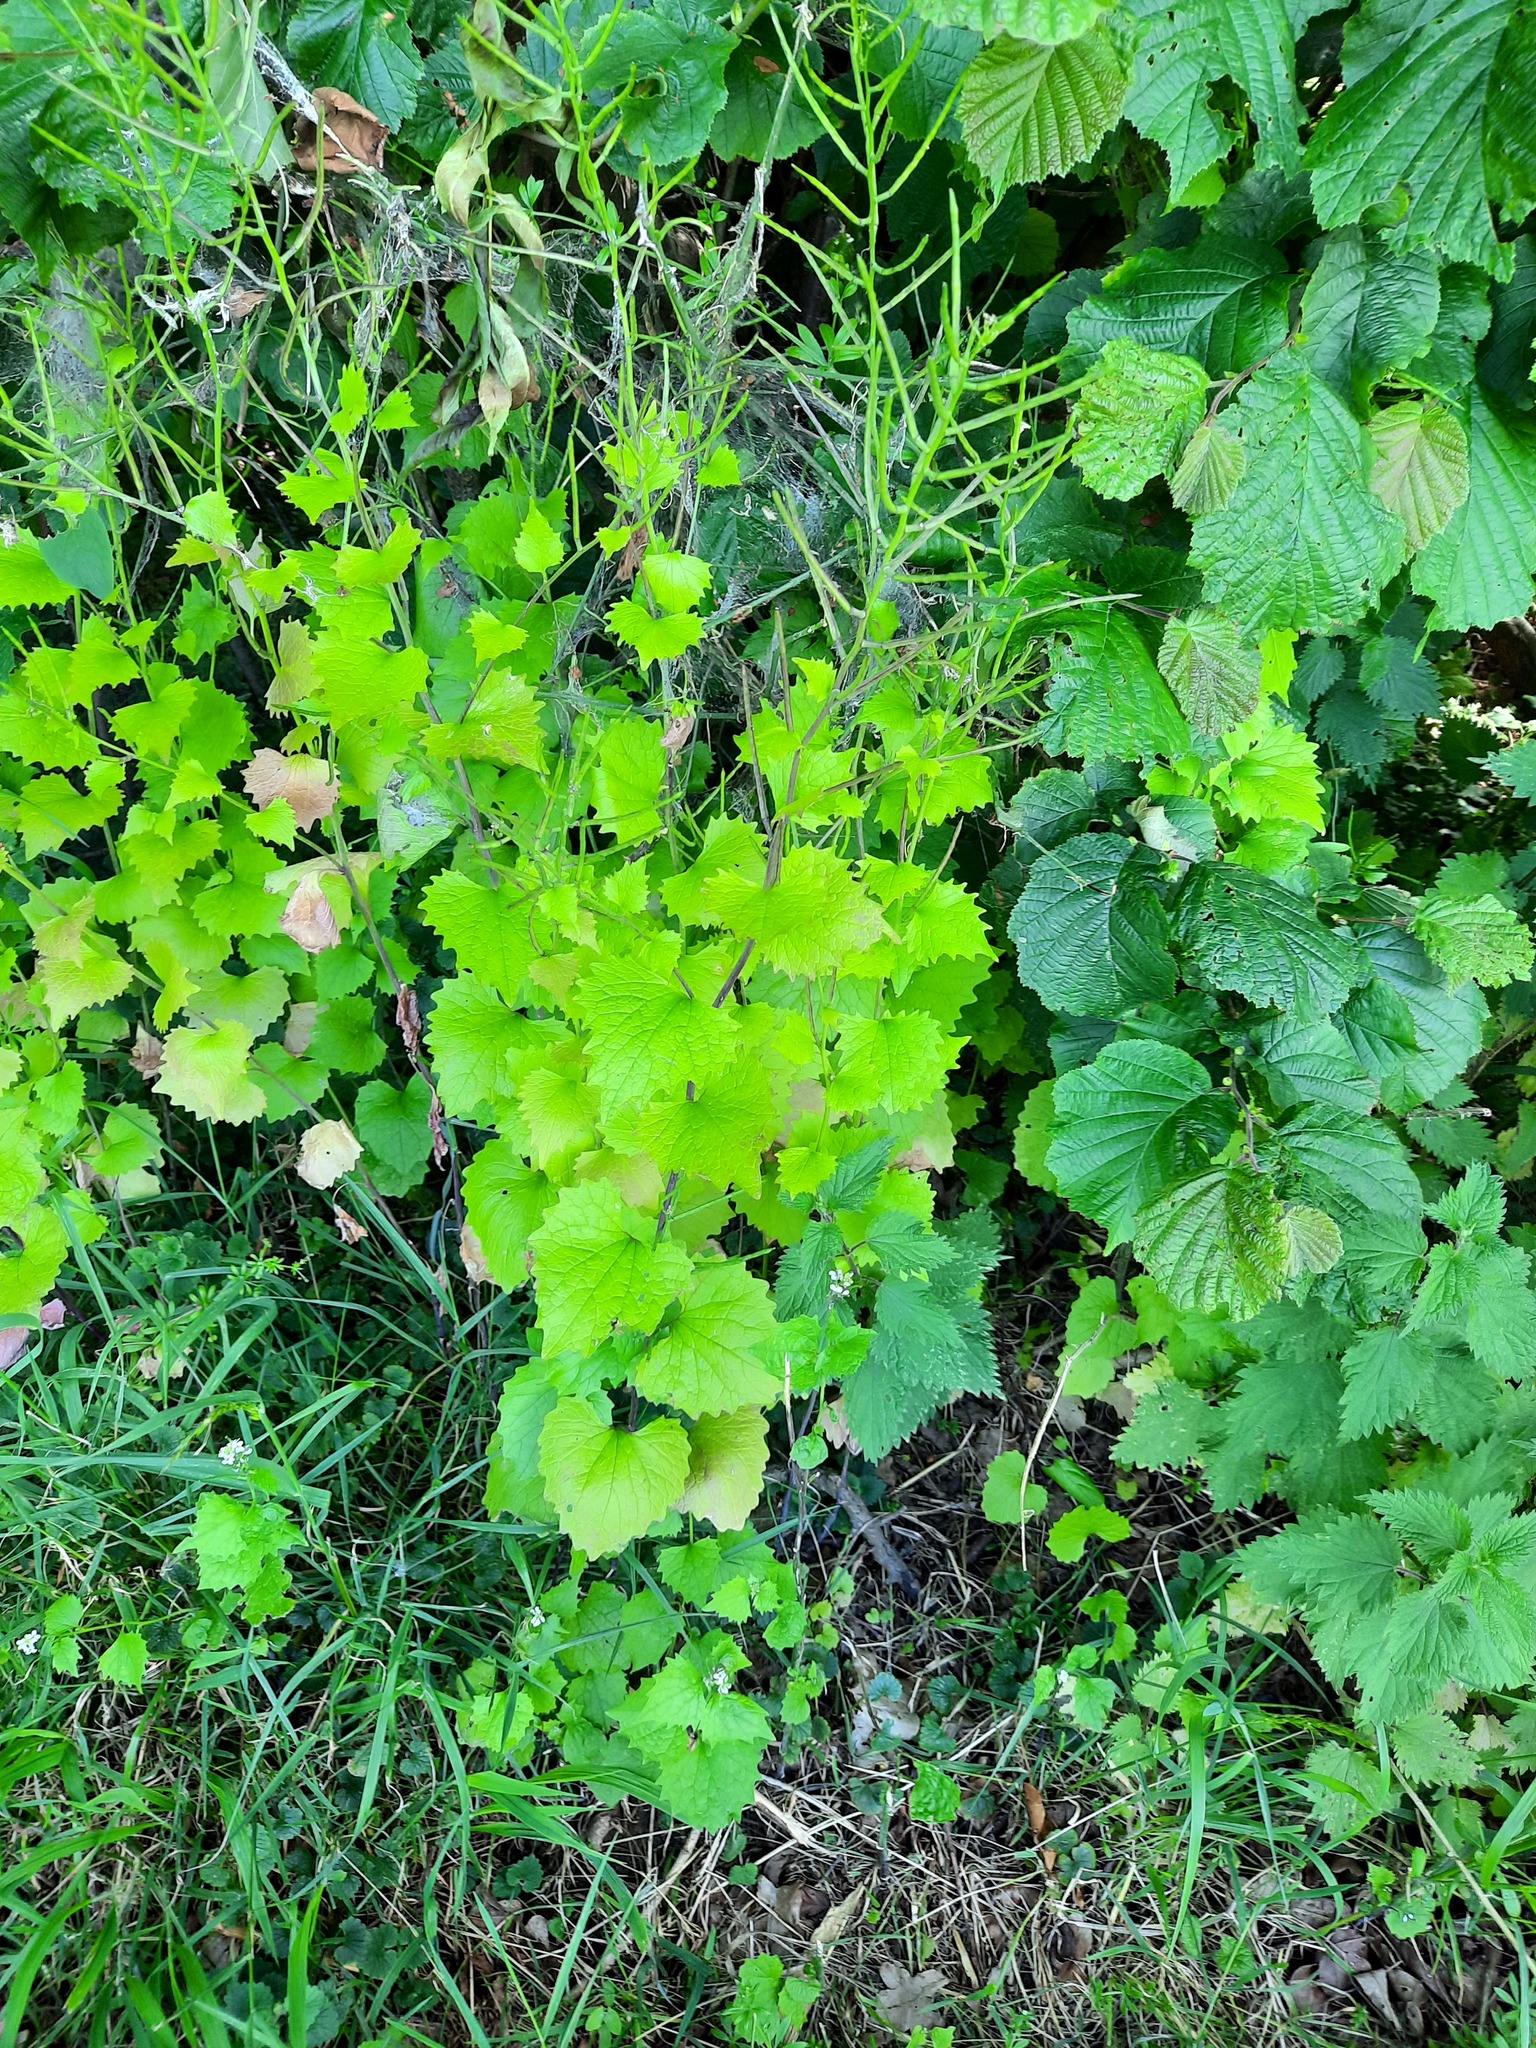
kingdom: Plantae
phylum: Tracheophyta
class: Magnoliopsida
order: Brassicales
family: Brassicaceae
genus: Alliaria
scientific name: Alliaria petiolata
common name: Garlic mustard
